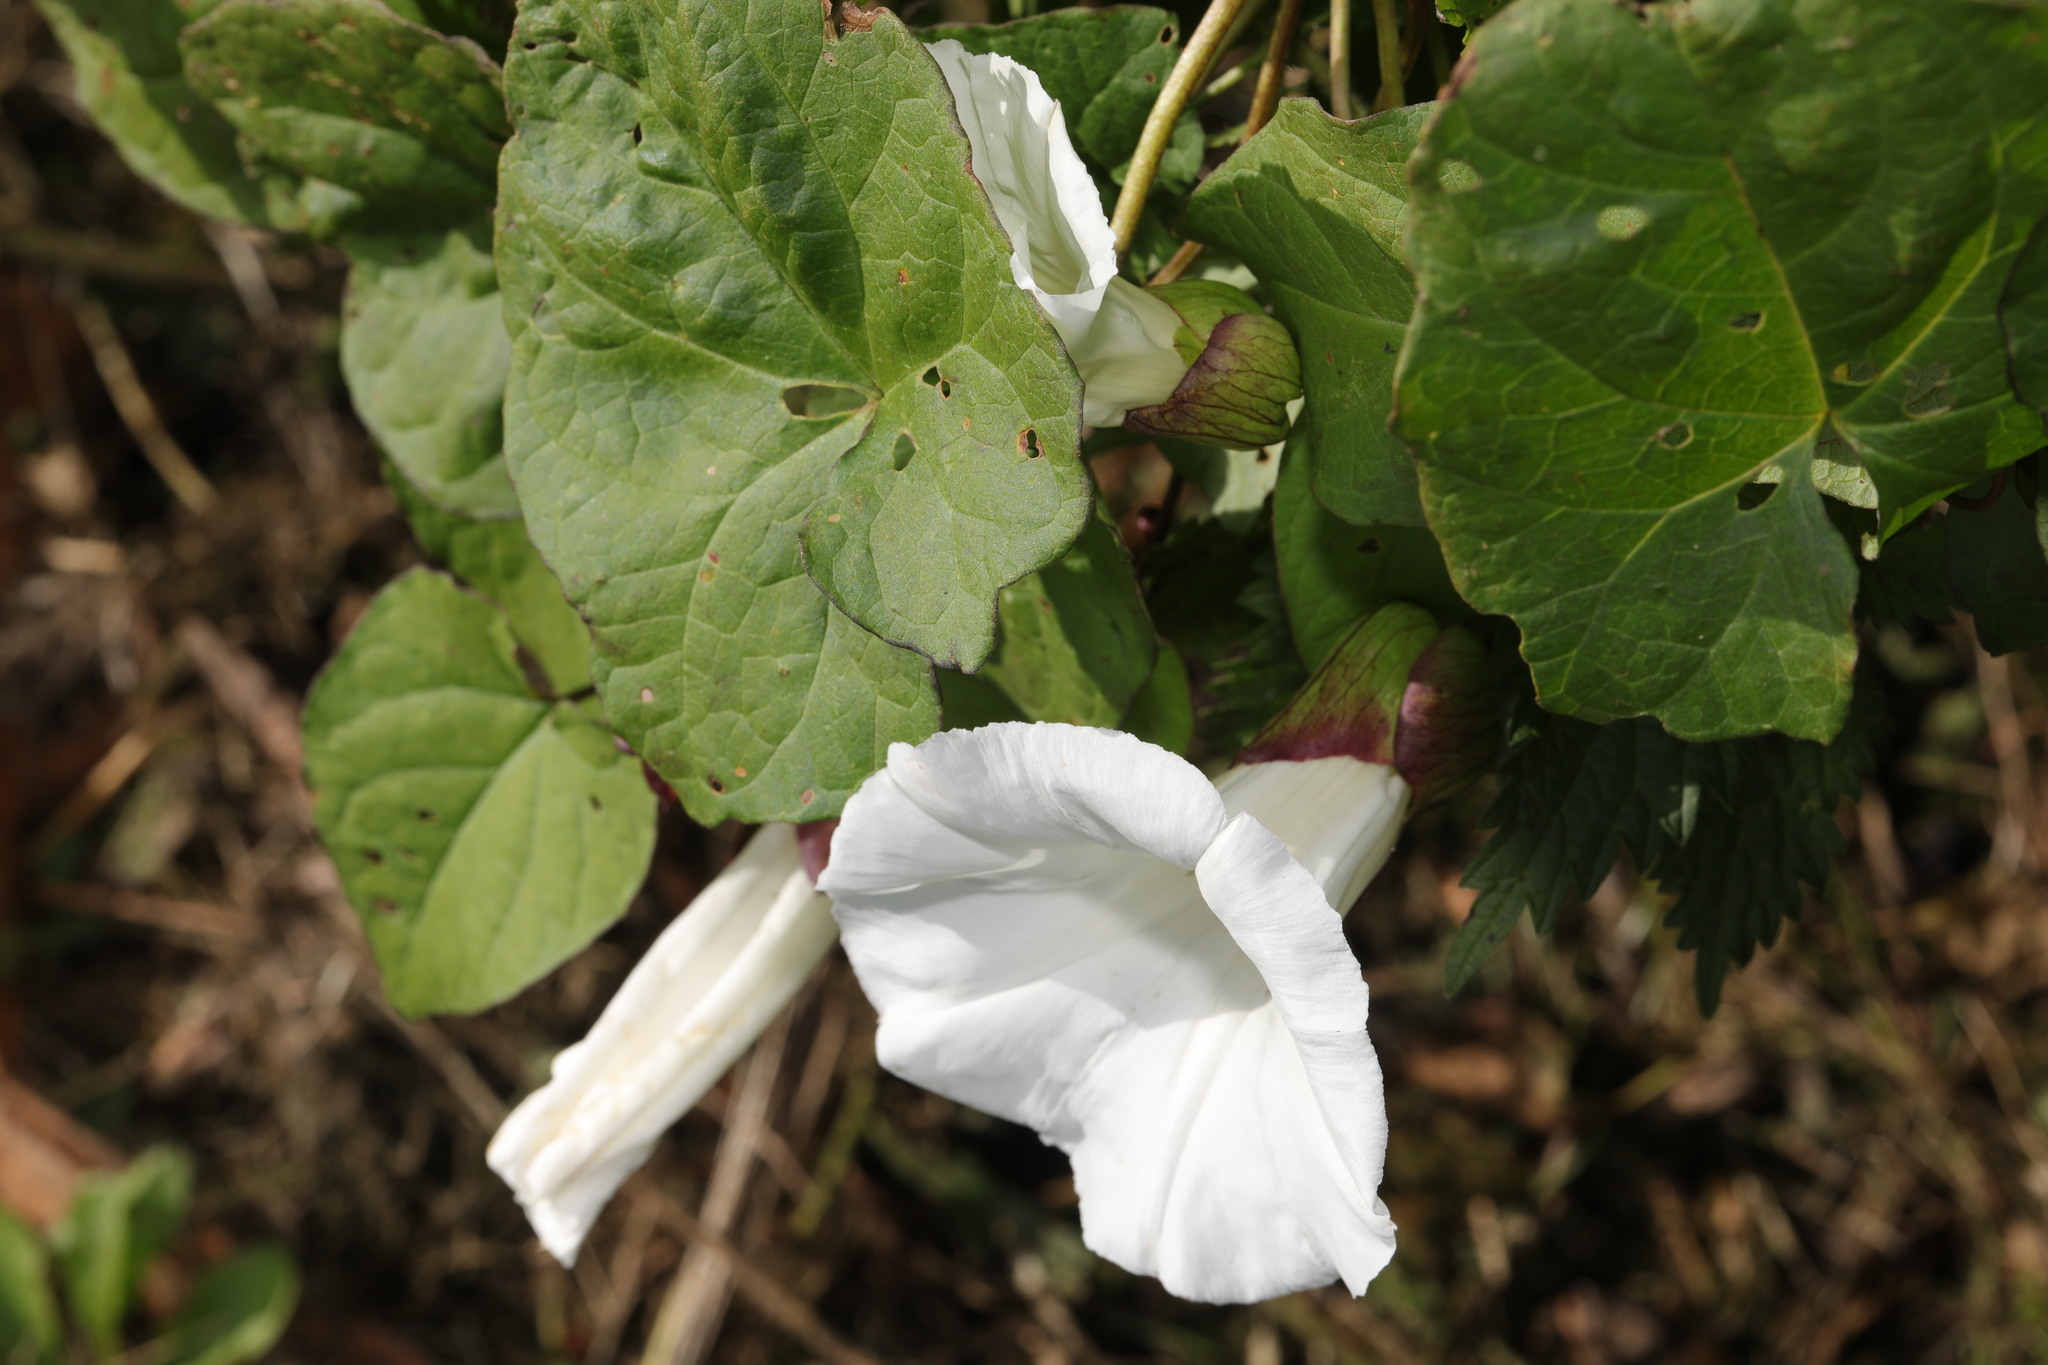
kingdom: Plantae
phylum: Tracheophyta
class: Magnoliopsida
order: Solanales
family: Convolvulaceae
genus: Calystegia
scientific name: Calystegia silvatica
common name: Large bindweed
